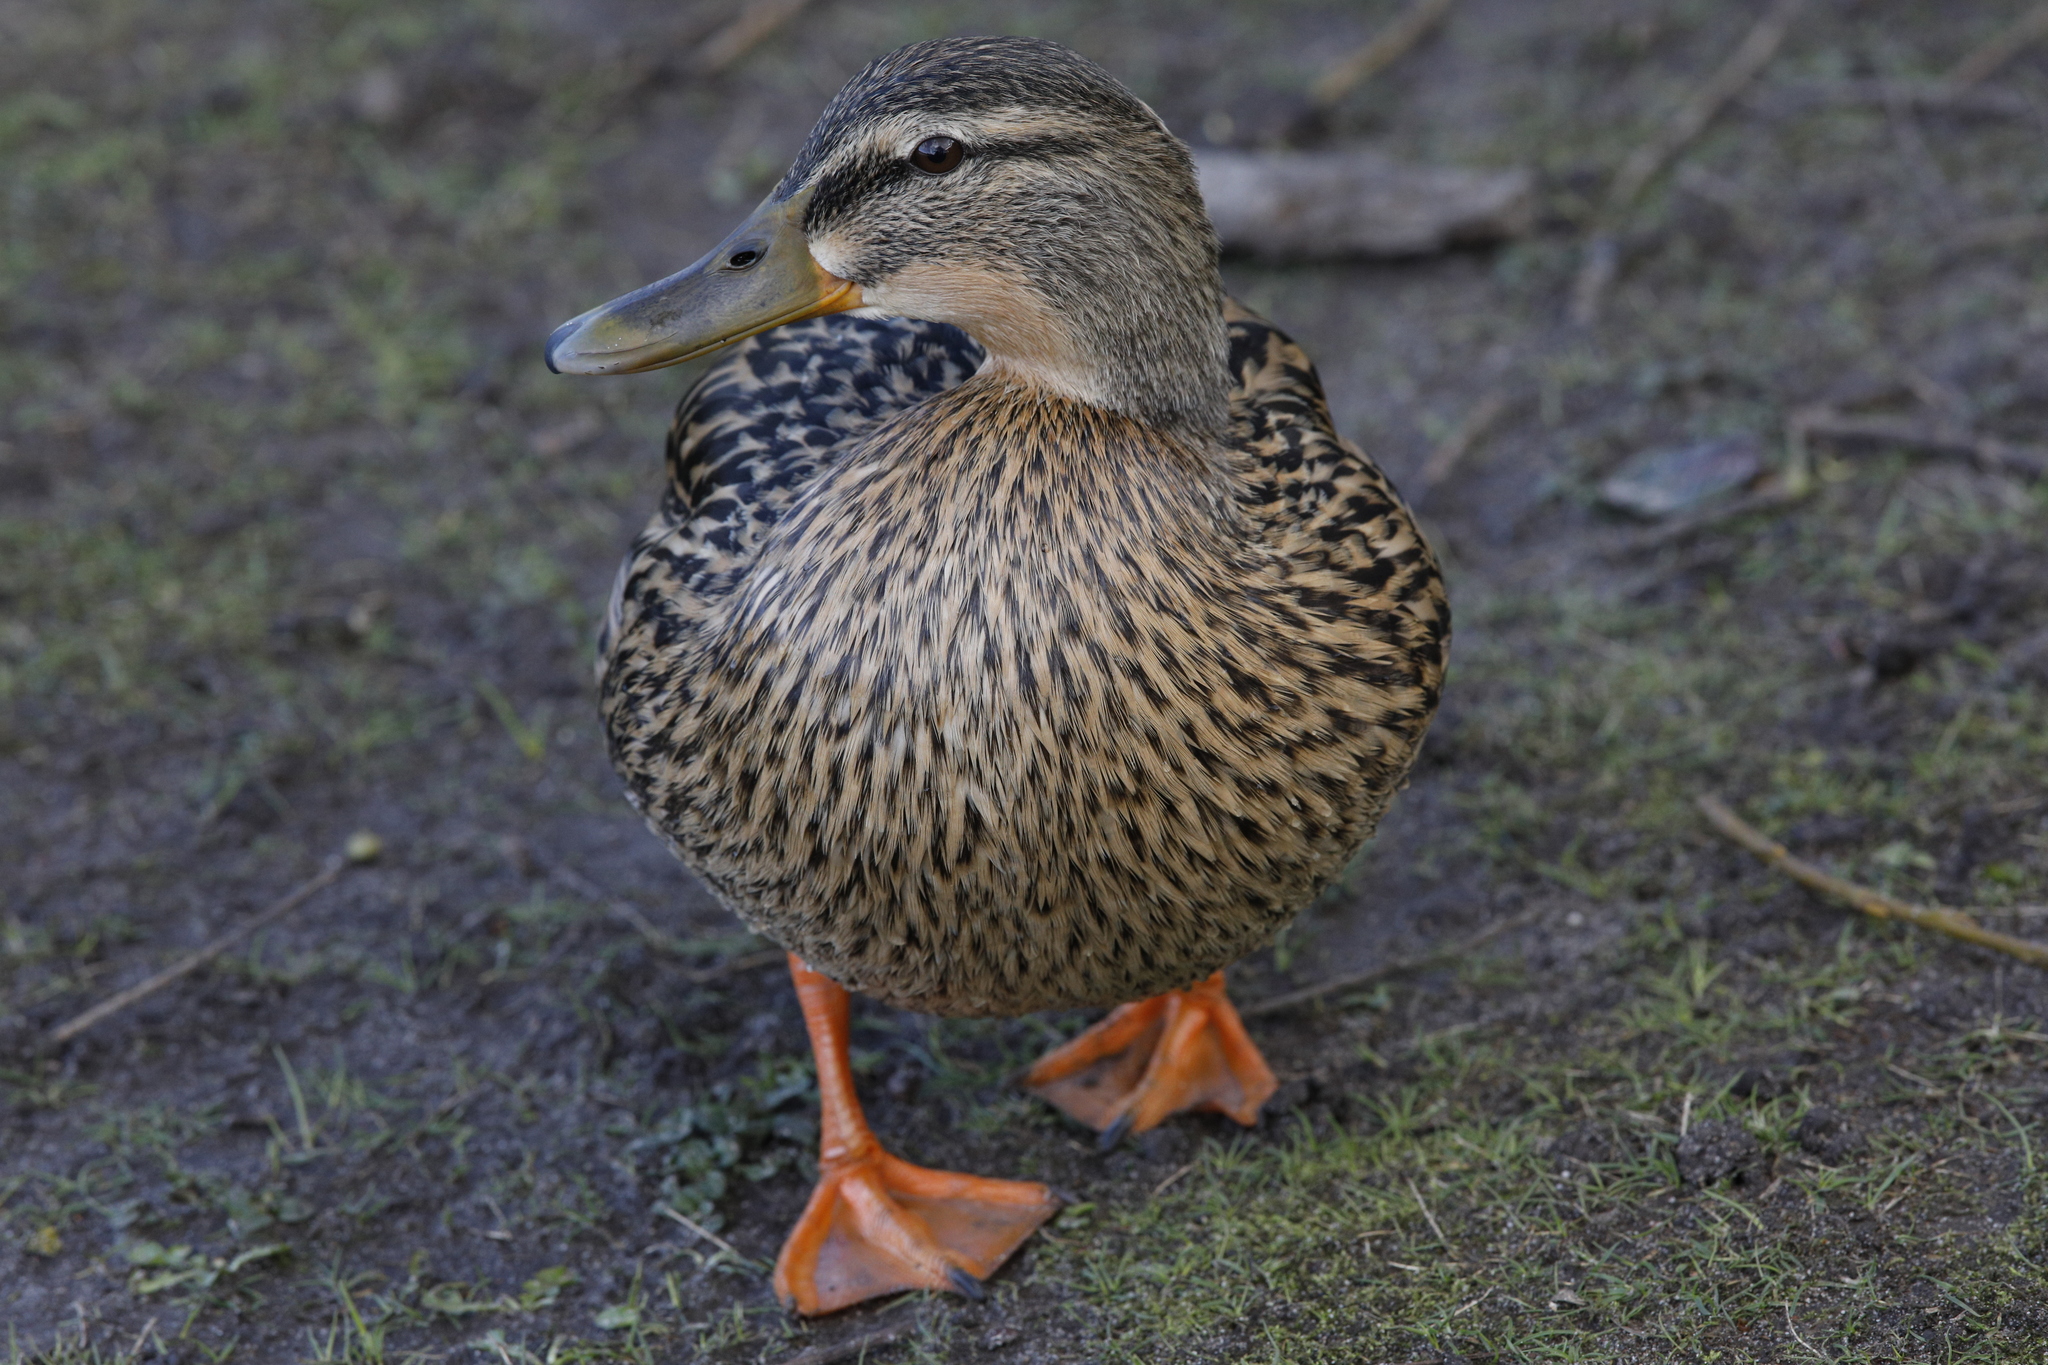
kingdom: Animalia
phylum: Chordata
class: Aves
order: Anseriformes
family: Anatidae
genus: Anas
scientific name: Anas platyrhynchos
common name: Mallard
